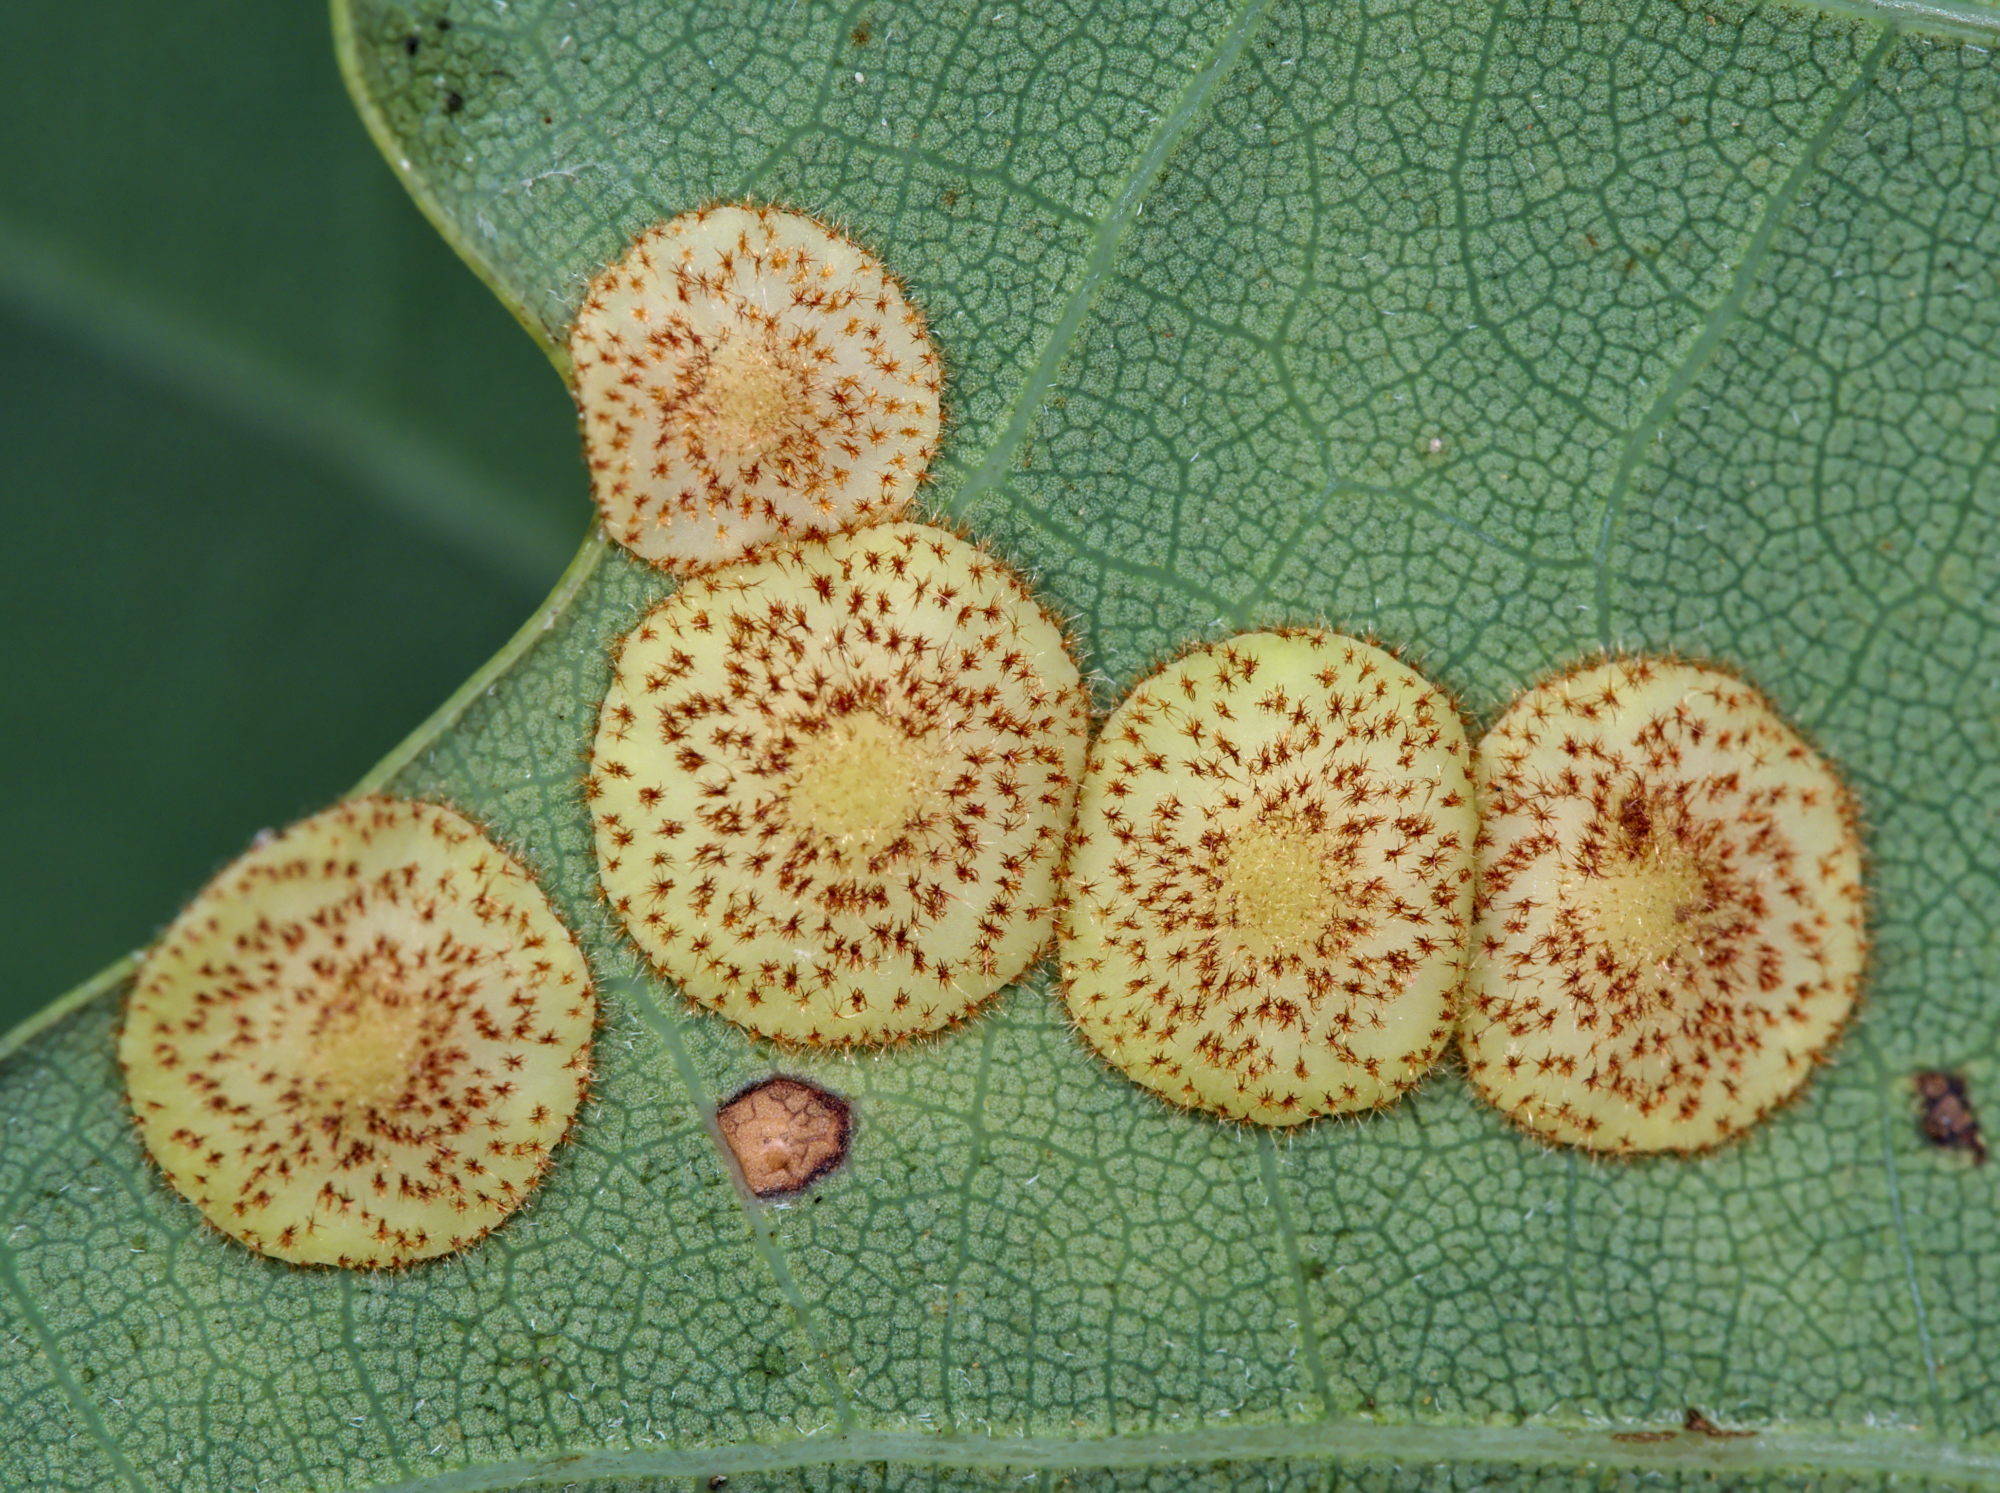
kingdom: Animalia
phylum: Arthropoda
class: Insecta
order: Hymenoptera
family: Cynipidae
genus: Neuroterus
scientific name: Neuroterus quercusbaccarum
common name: Common spangle gall
